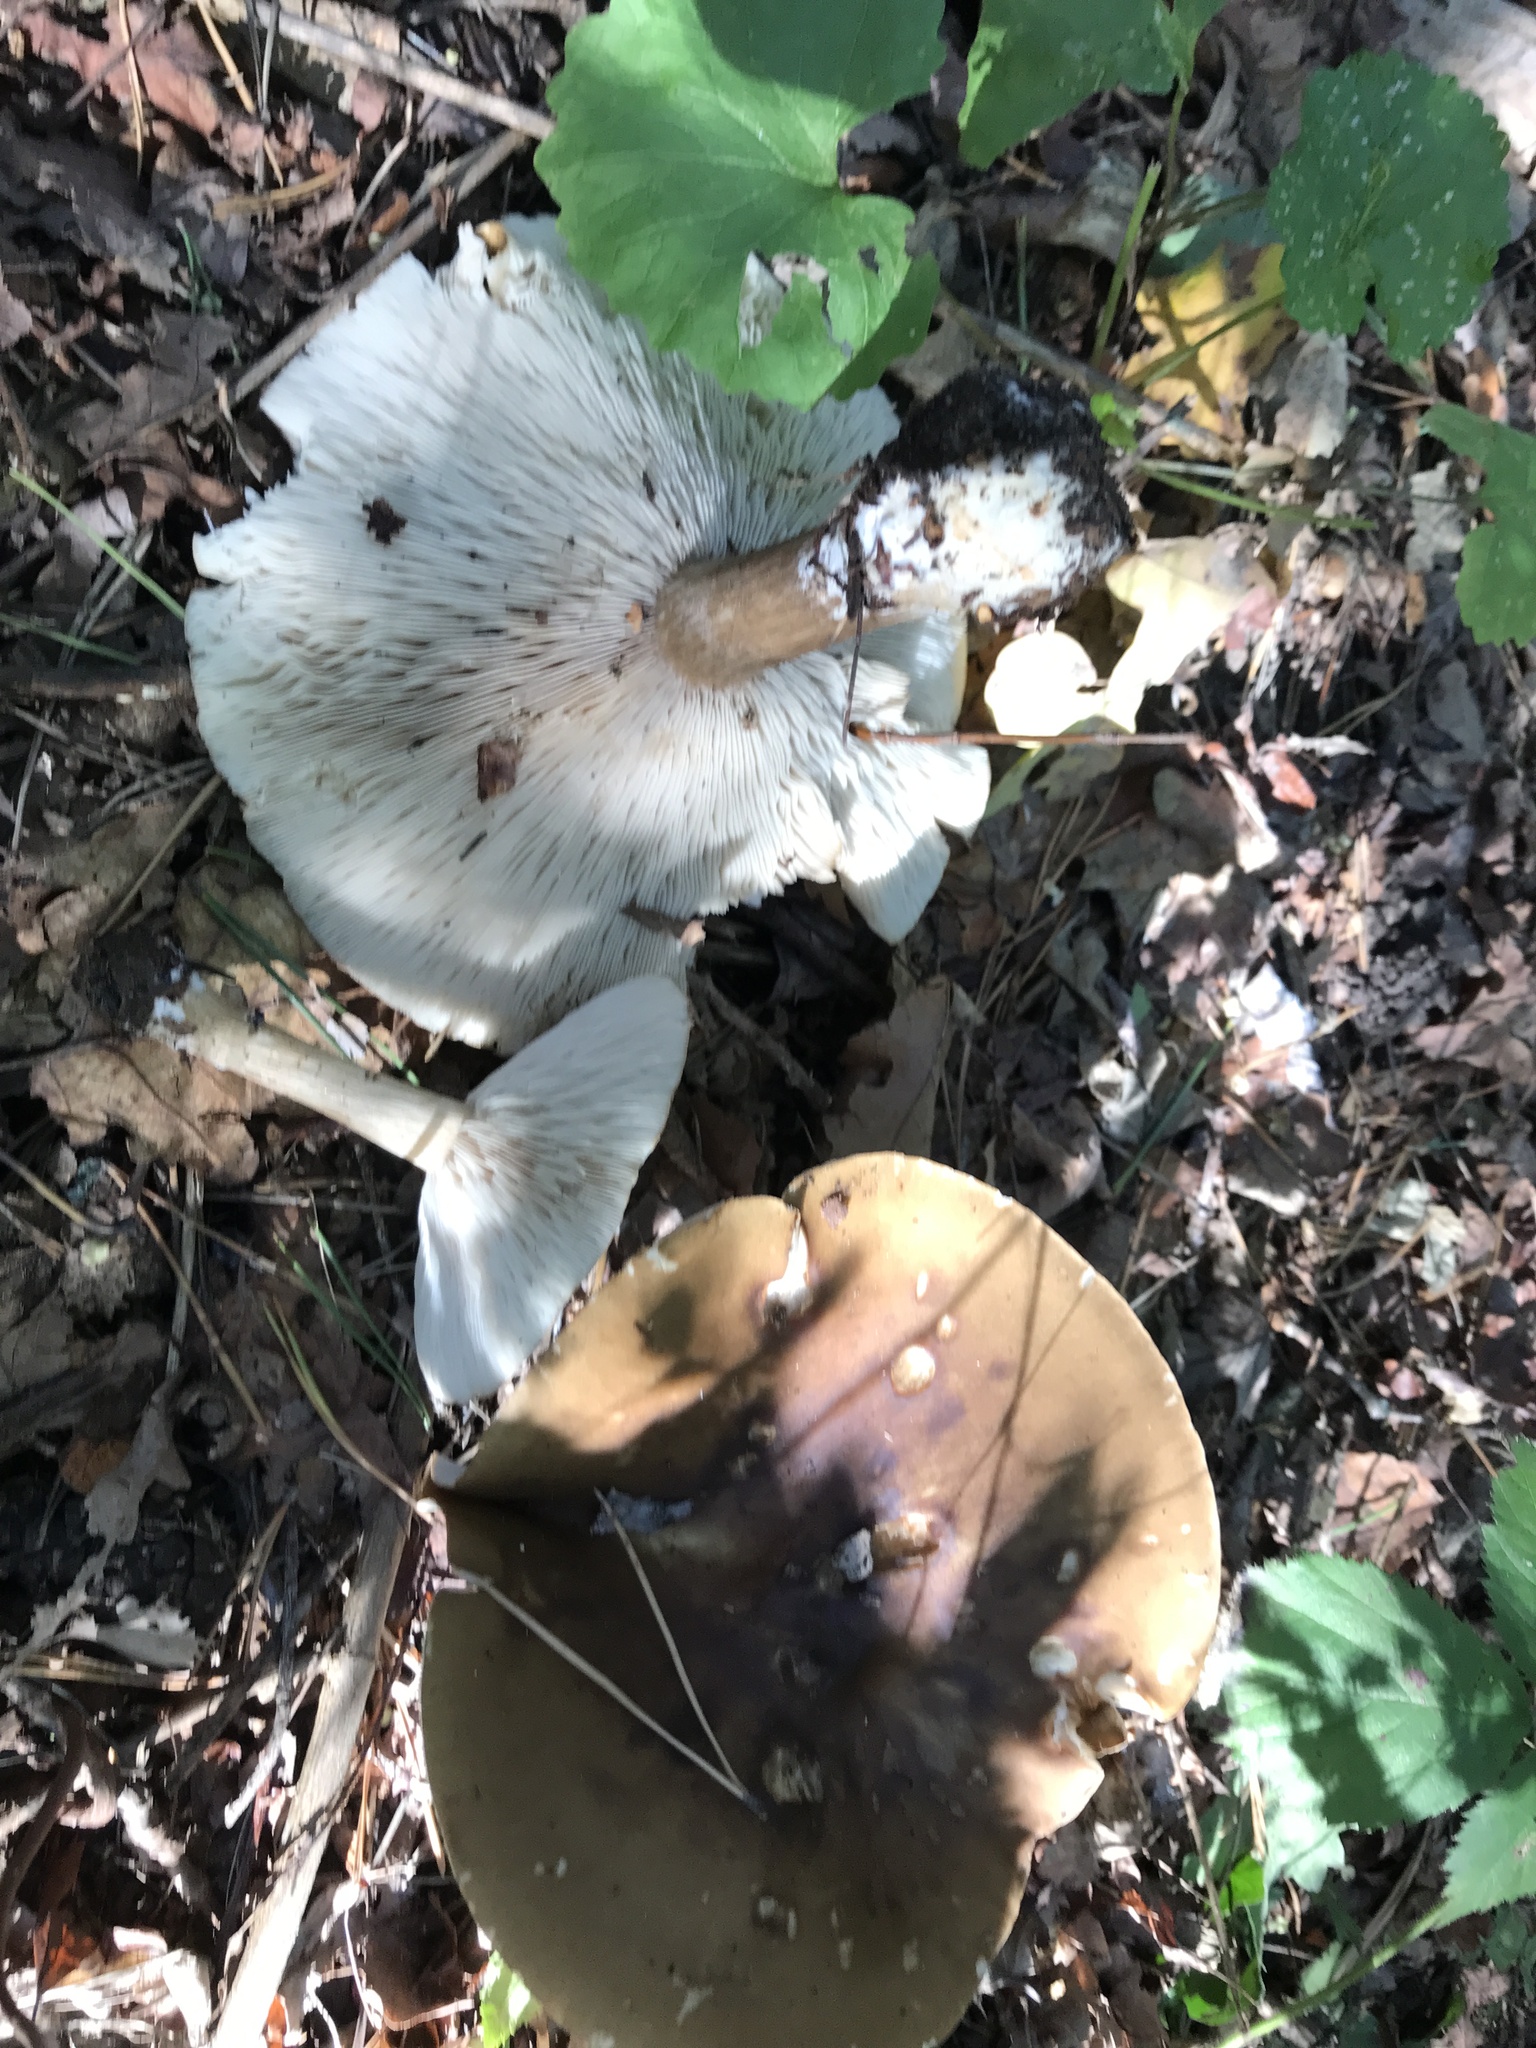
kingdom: Fungi
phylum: Basidiomycota
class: Agaricomycetes
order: Agaricales
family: Tricholomataceae
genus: Melanoleuca
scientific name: Melanoleuca grammopodia
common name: Grooved cavalier
